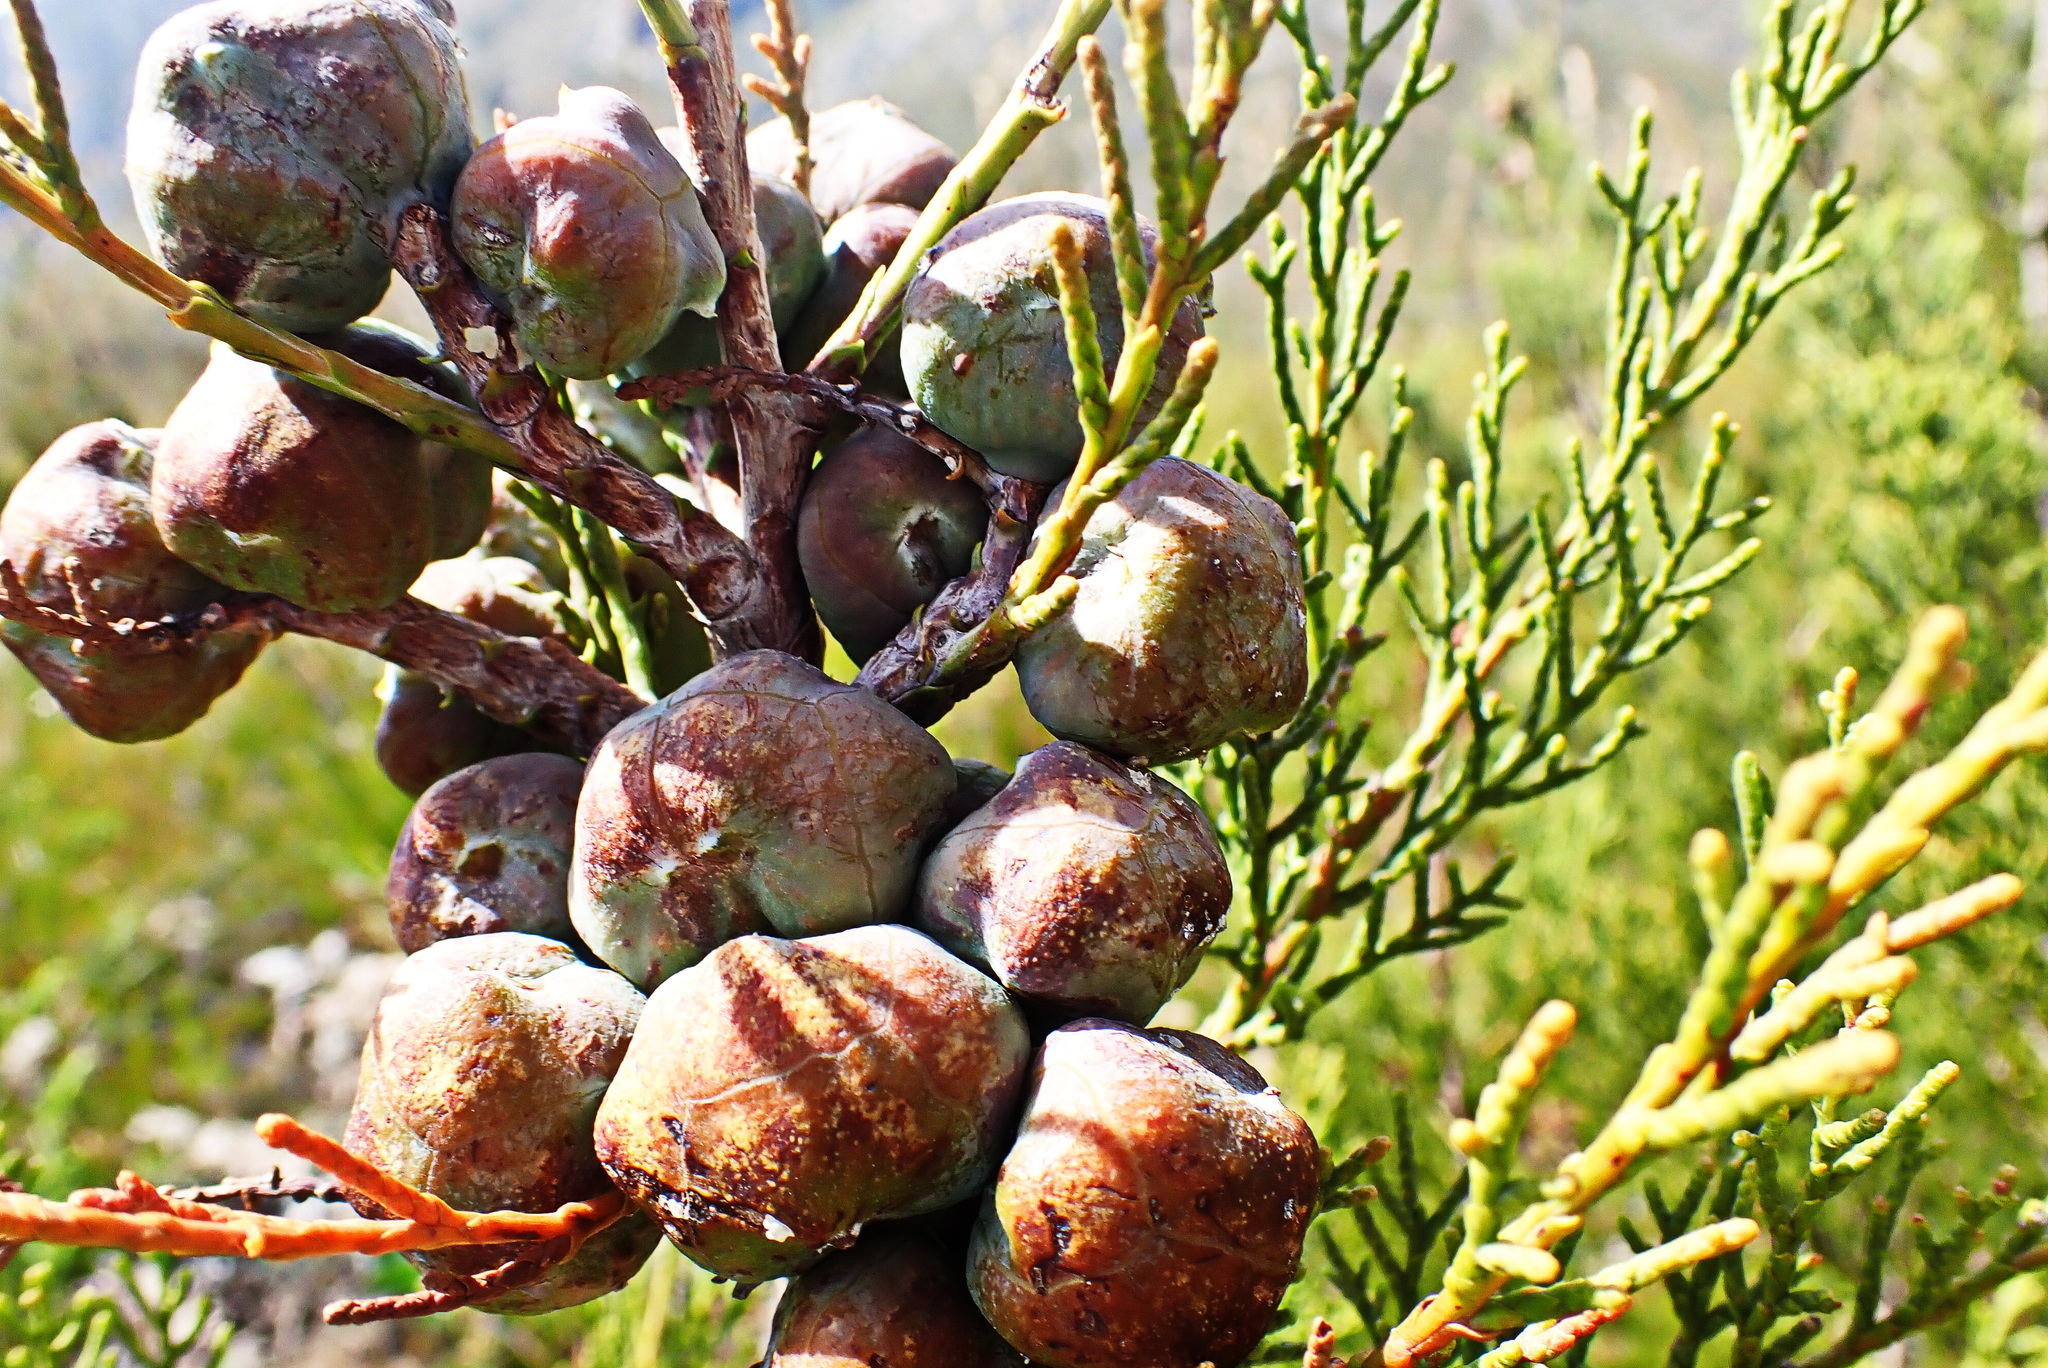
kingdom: Plantae
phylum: Tracheophyta
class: Pinopsida
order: Pinales
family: Cupressaceae
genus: Widdringtonia
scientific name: Widdringtonia nodiflora
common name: Cape cypress
